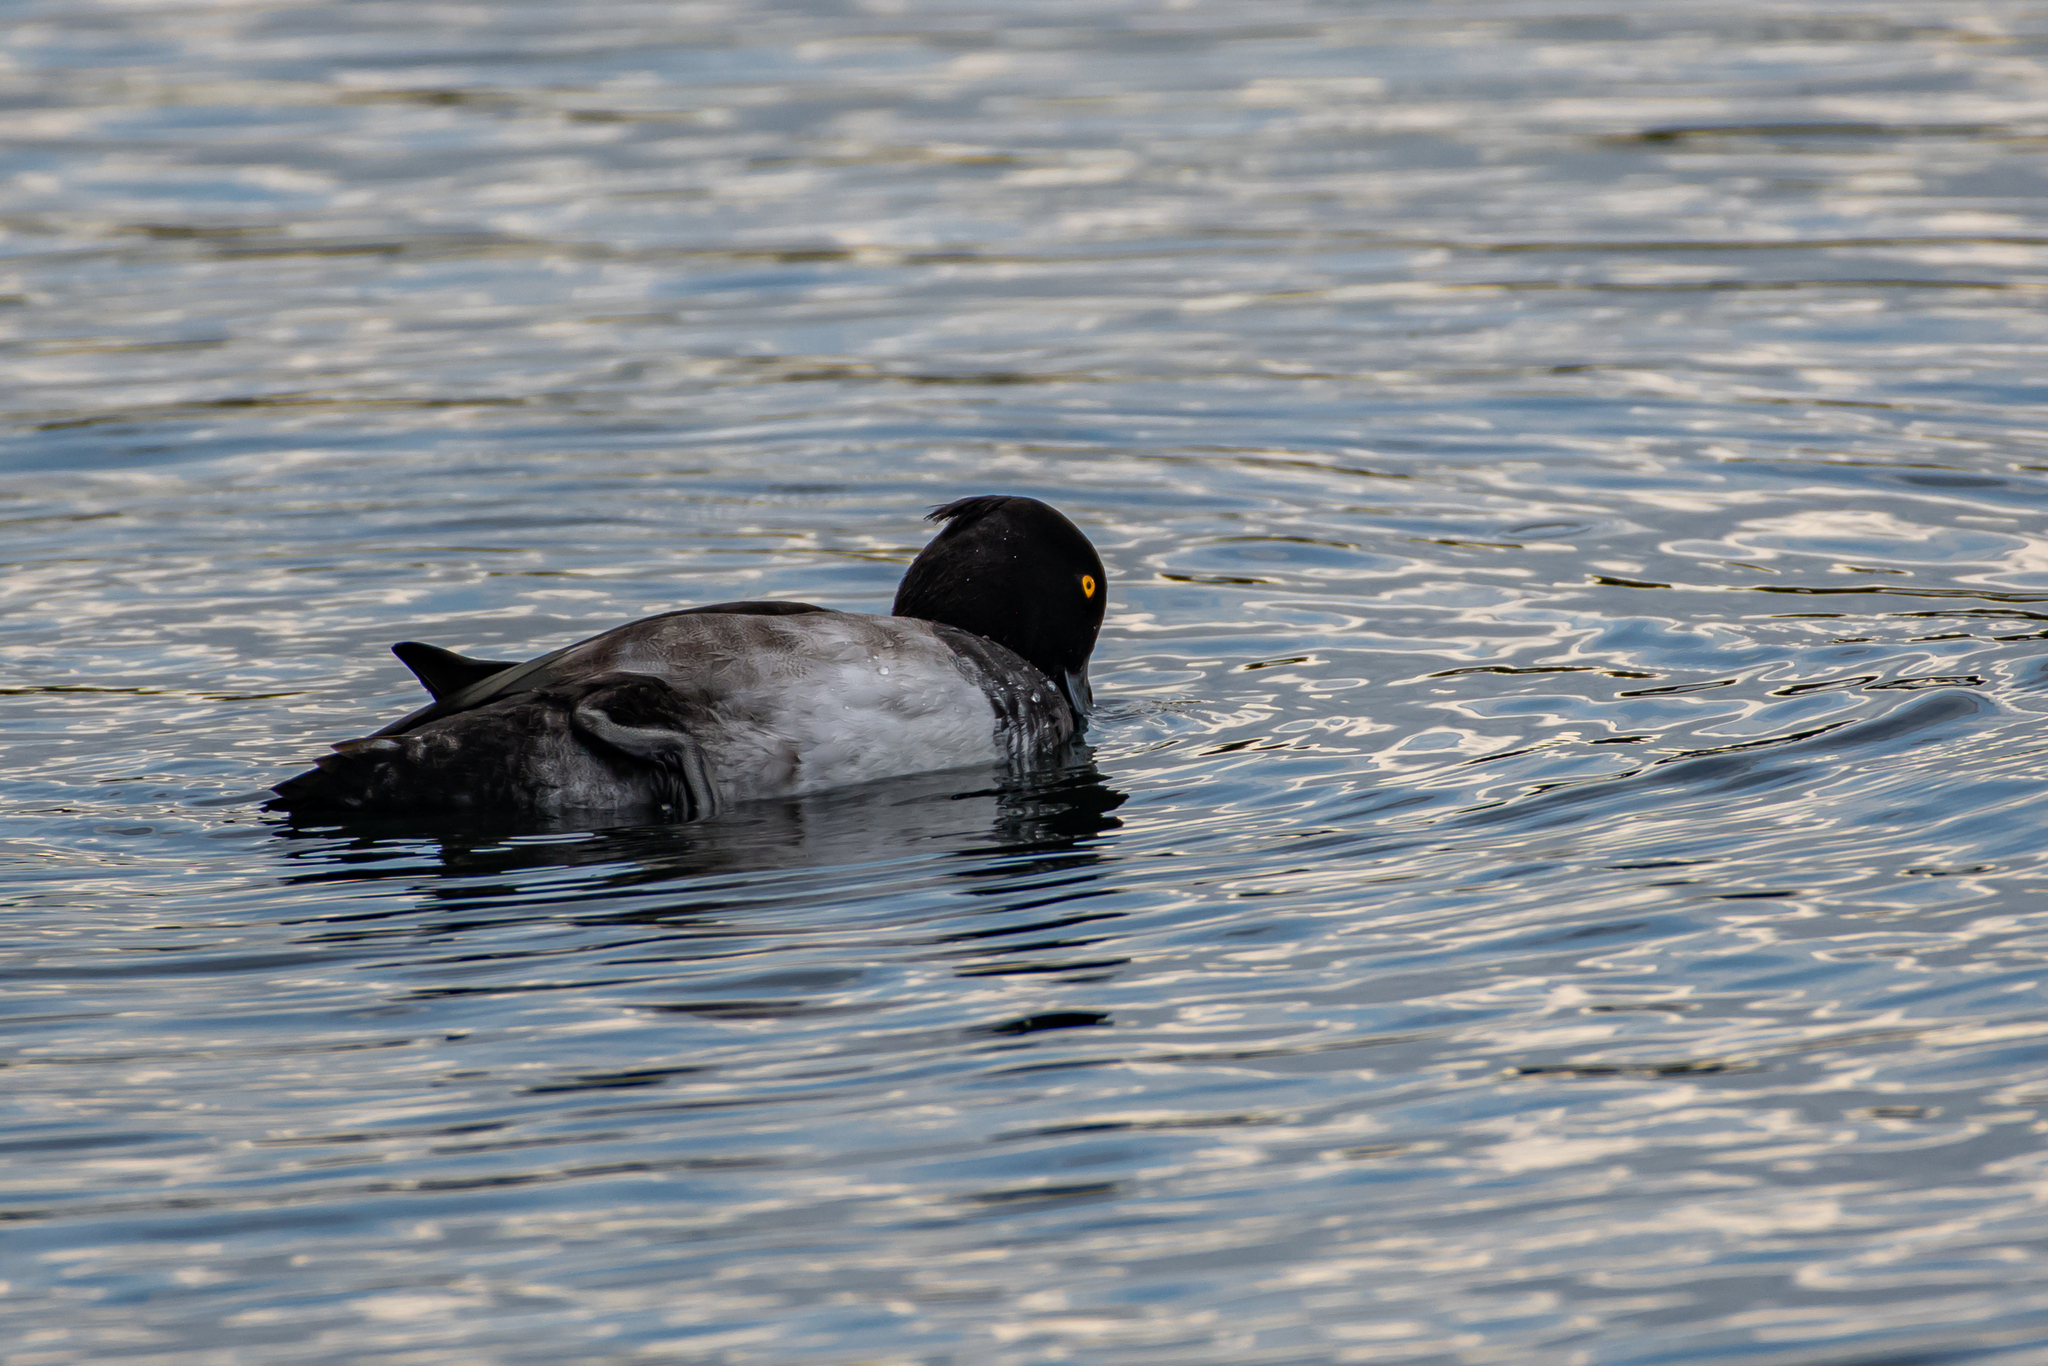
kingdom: Animalia
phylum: Chordata
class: Aves
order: Anseriformes
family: Anatidae
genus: Aythya
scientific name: Aythya fuligula
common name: Tufted duck
